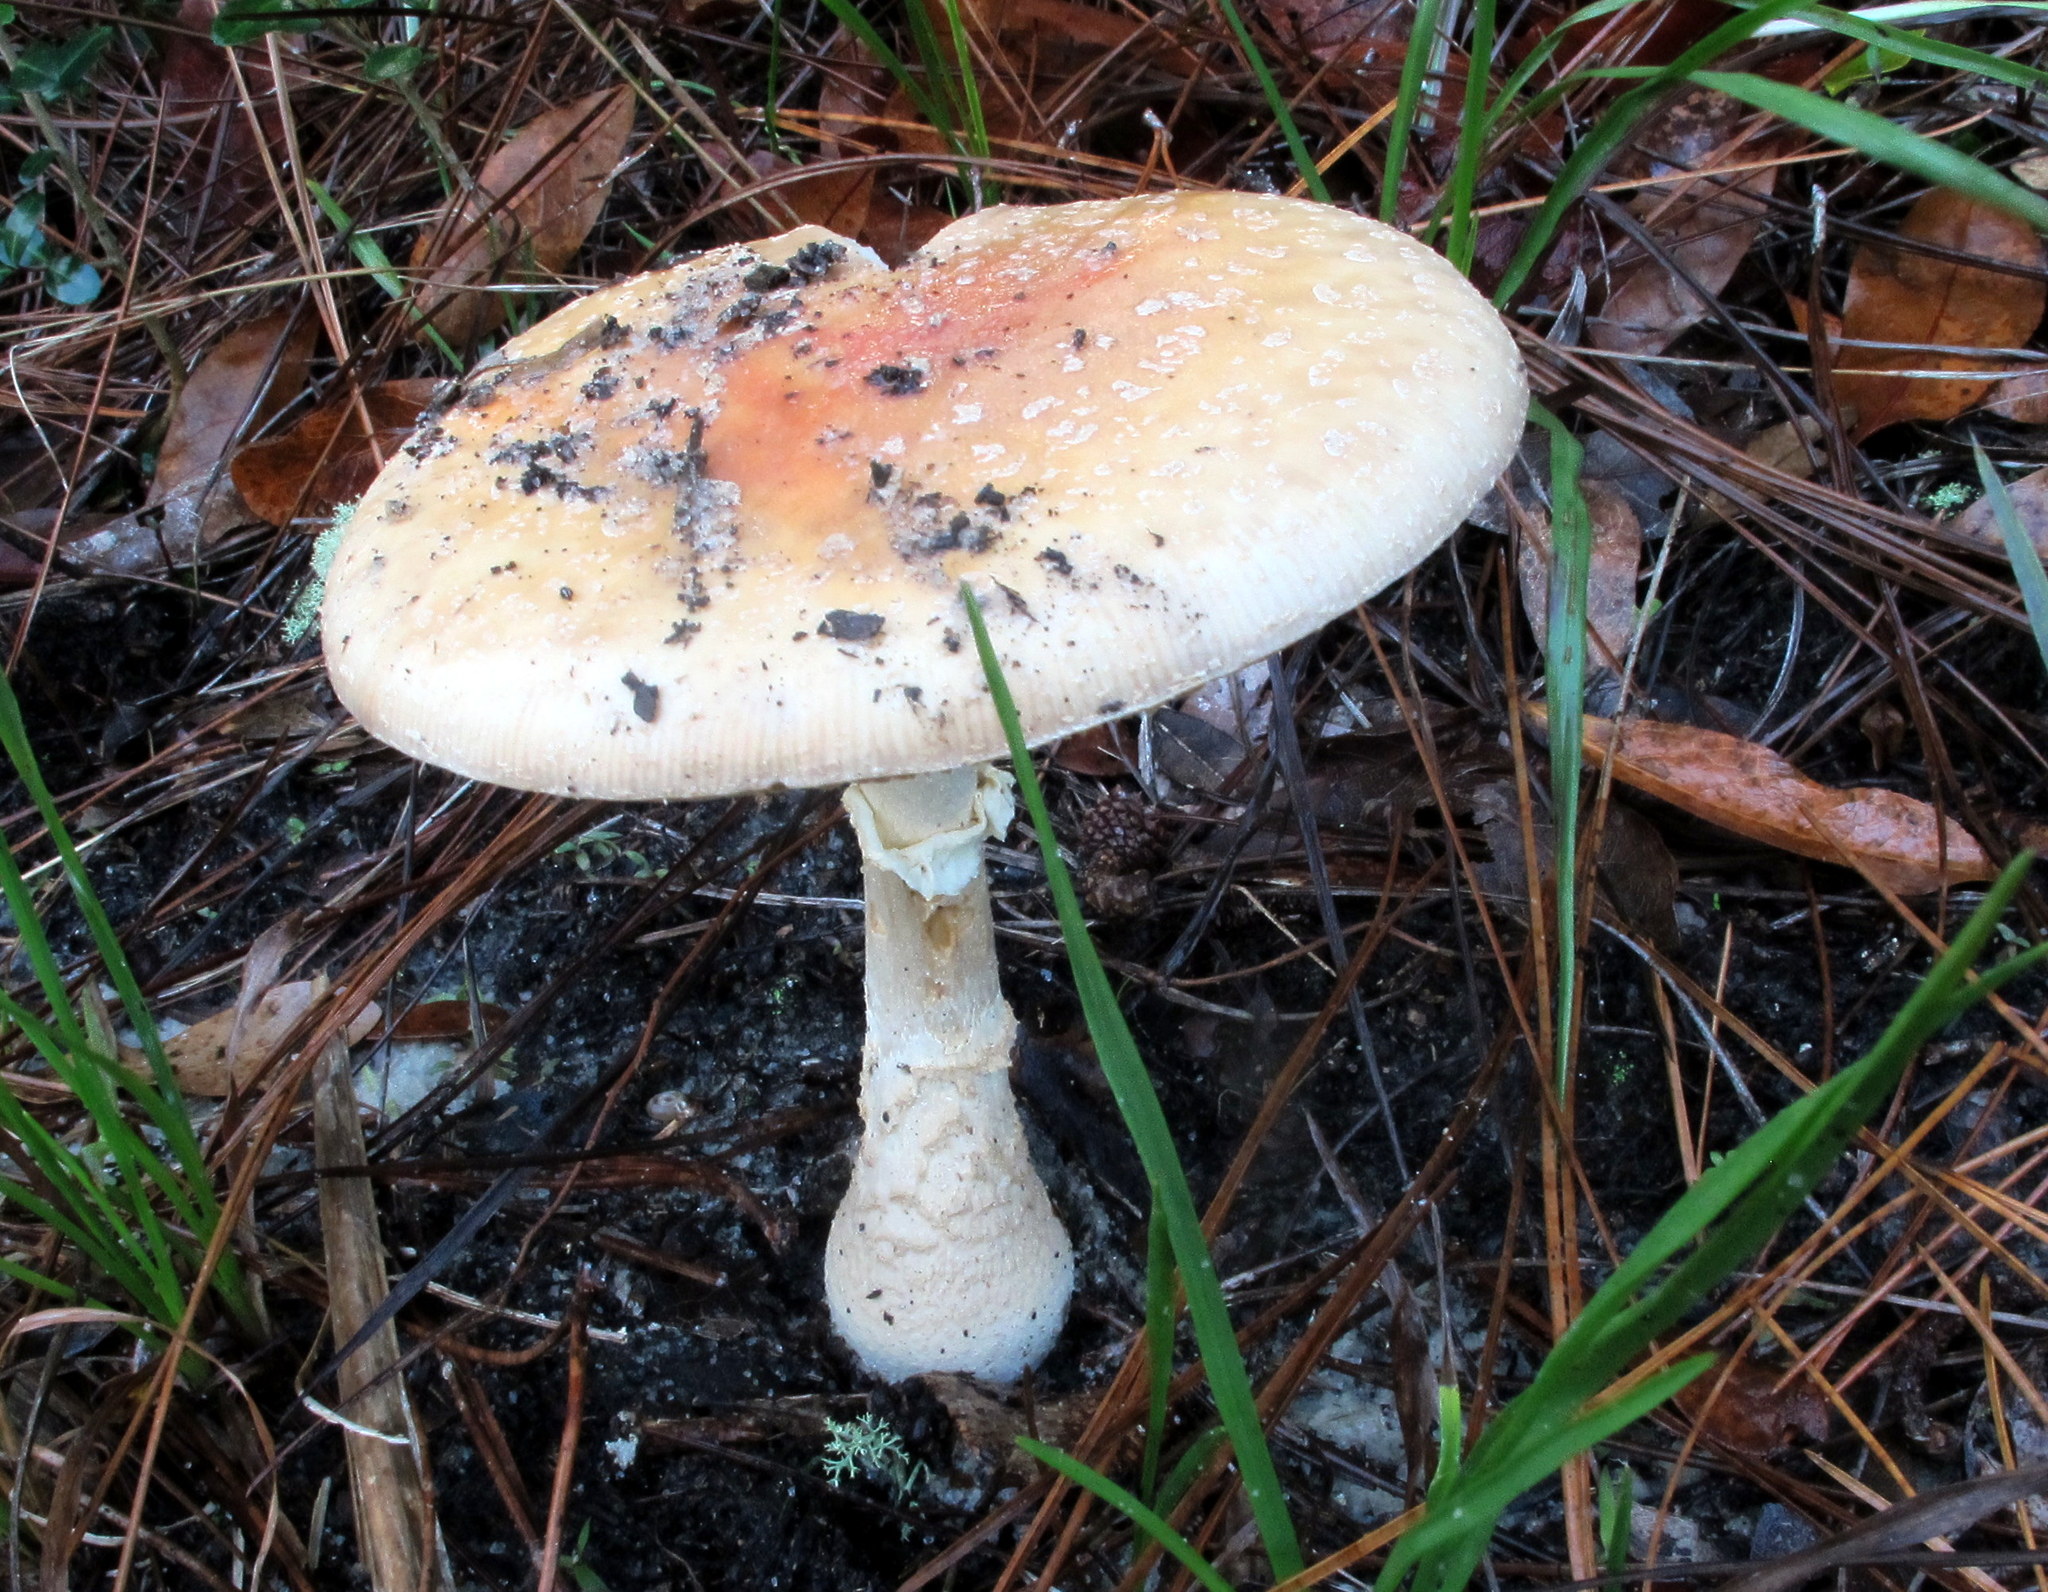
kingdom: Fungi
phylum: Basidiomycota
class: Agaricomycetes
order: Agaricales
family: Amanitaceae
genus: Amanita
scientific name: Amanita persicina
